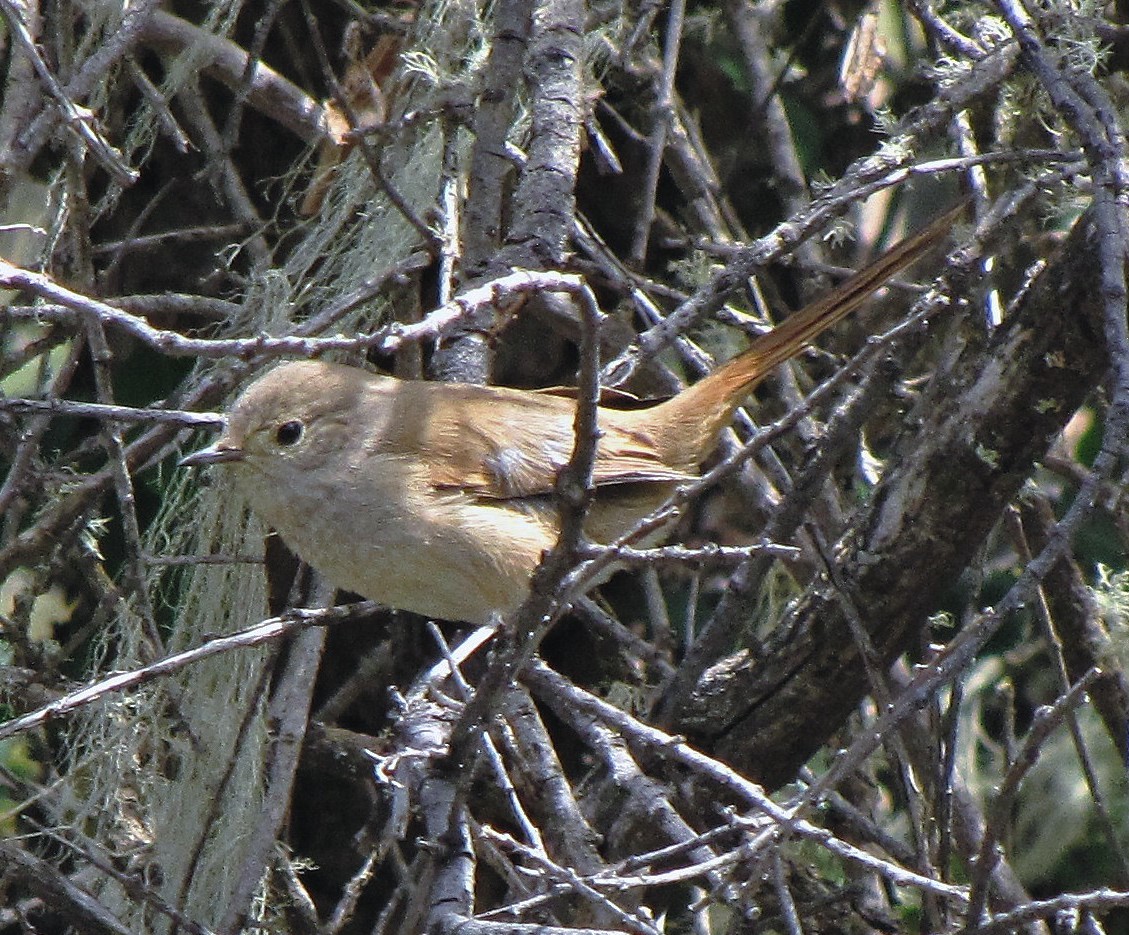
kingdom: Animalia
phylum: Chordata
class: Aves
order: Passeriformes
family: Furnariidae
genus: Asthenes
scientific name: Asthenes pyrrholeuca
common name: Sharp-billed canastero
